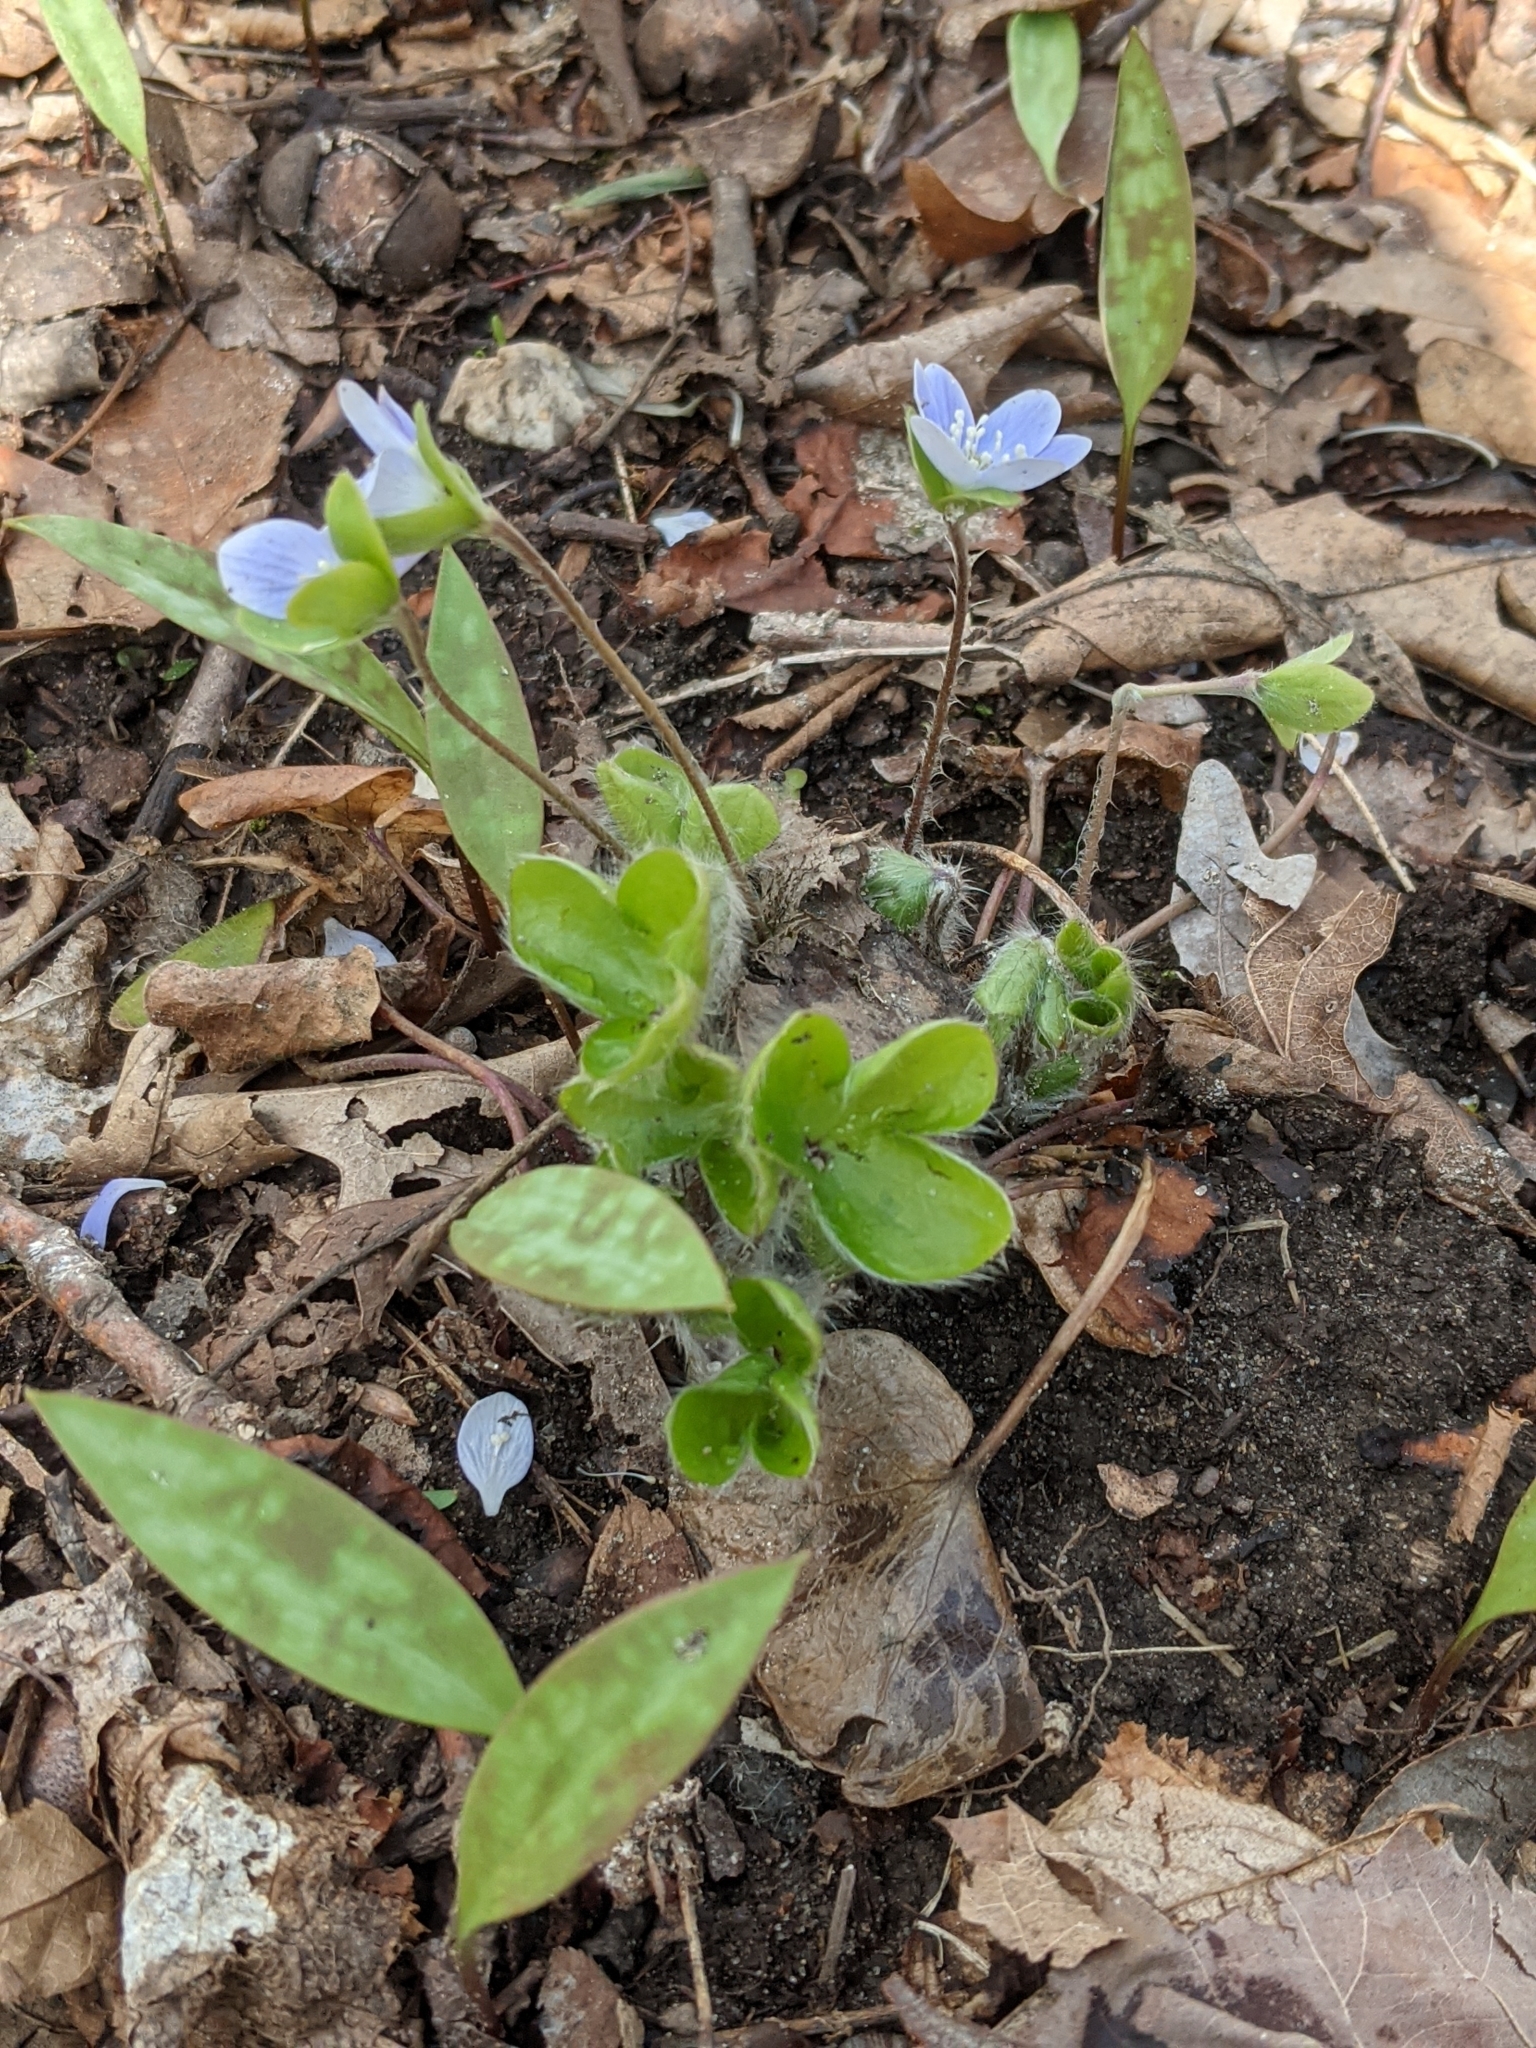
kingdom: Plantae
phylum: Tracheophyta
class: Magnoliopsida
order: Ranunculales
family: Ranunculaceae
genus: Hepatica
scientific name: Hepatica americana
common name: American hepatica
